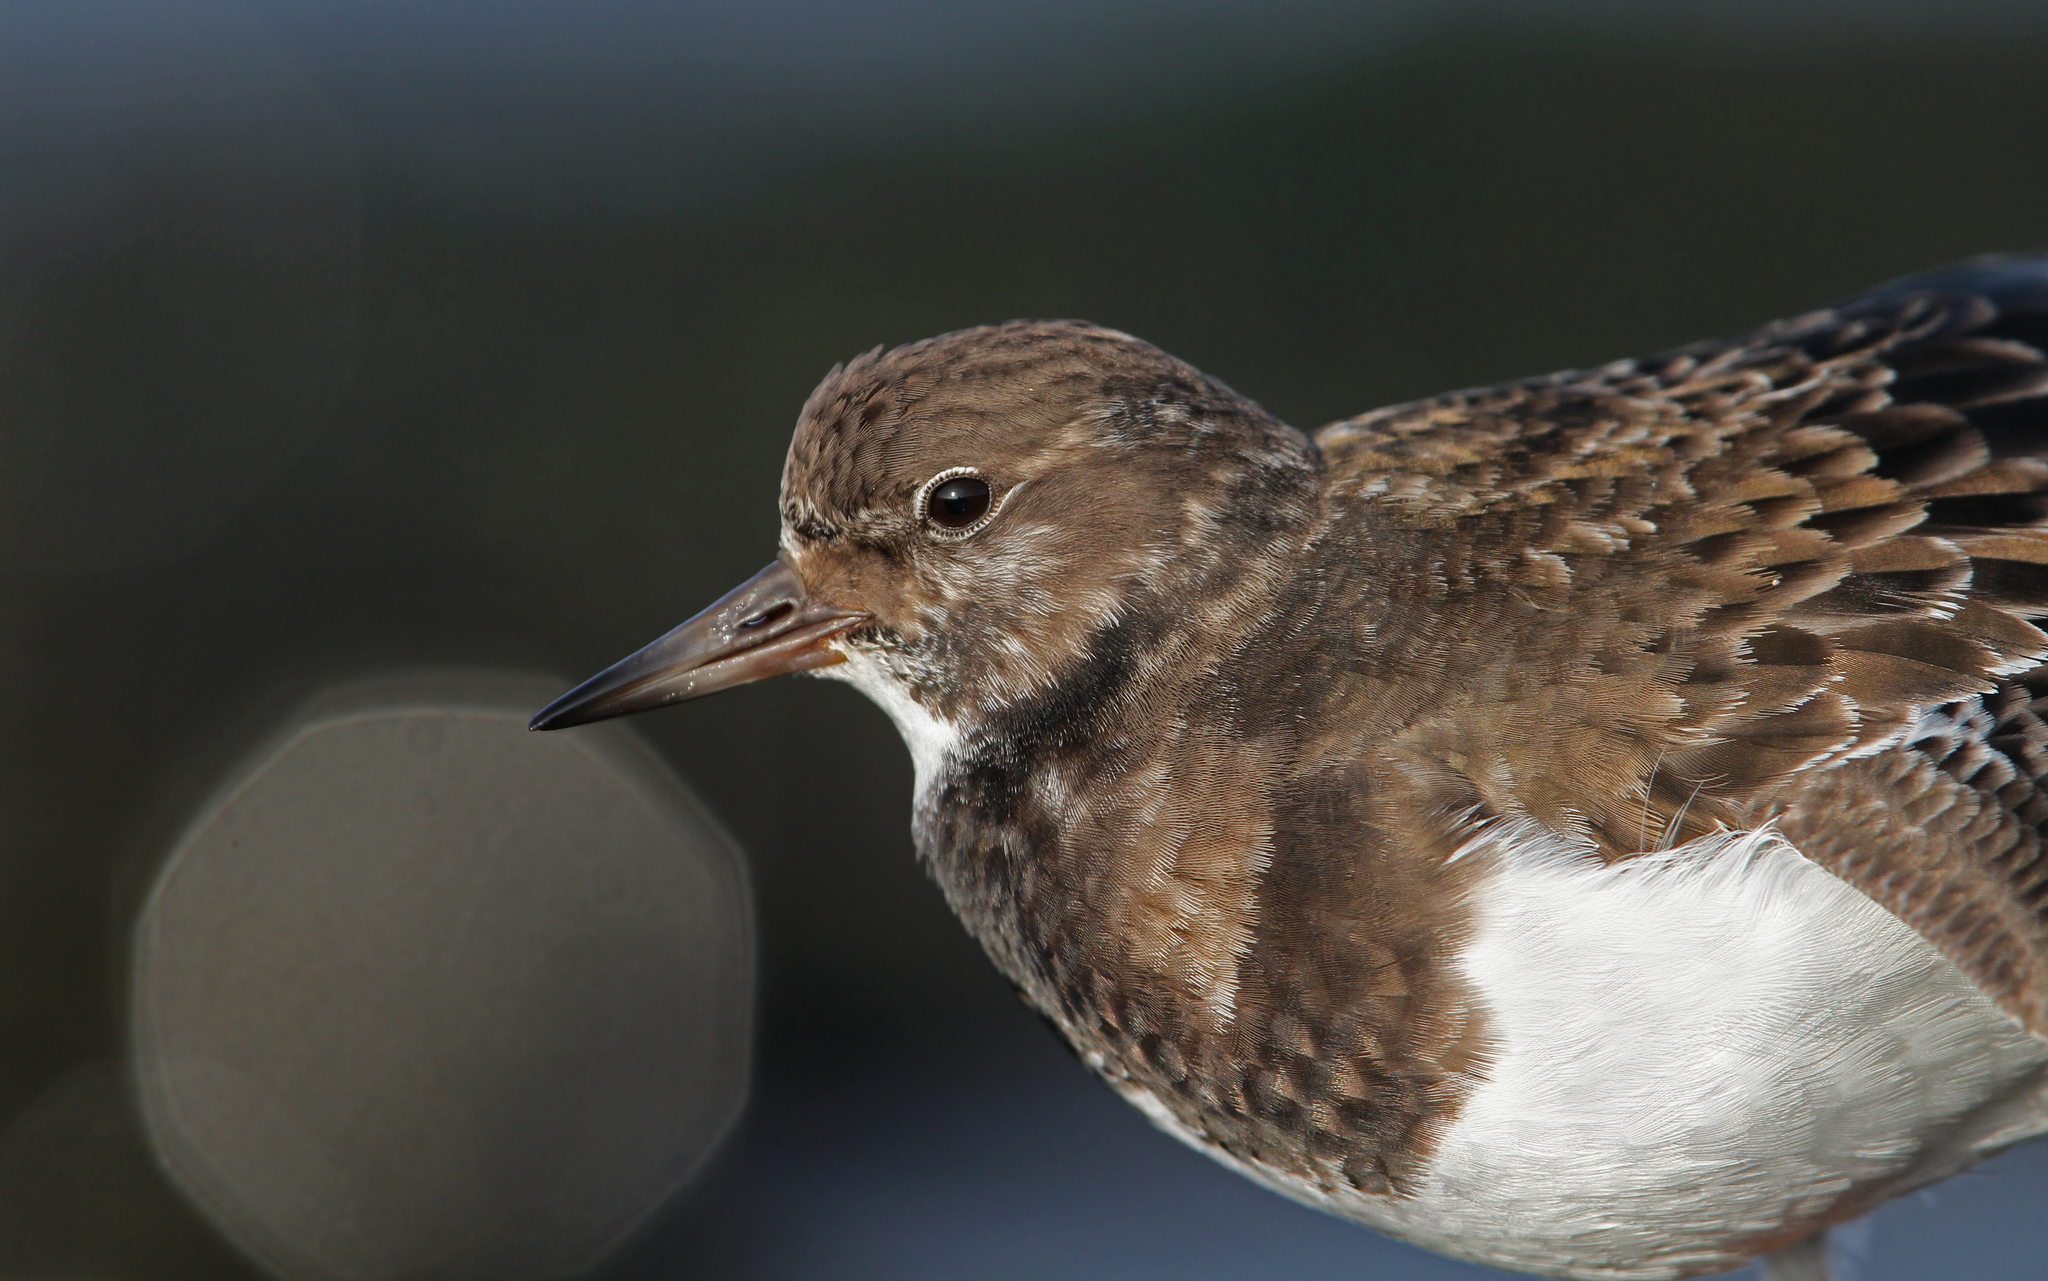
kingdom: Animalia
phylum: Chordata
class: Aves
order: Charadriiformes
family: Scolopacidae
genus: Arenaria
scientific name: Arenaria interpres
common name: Ruddy turnstone
